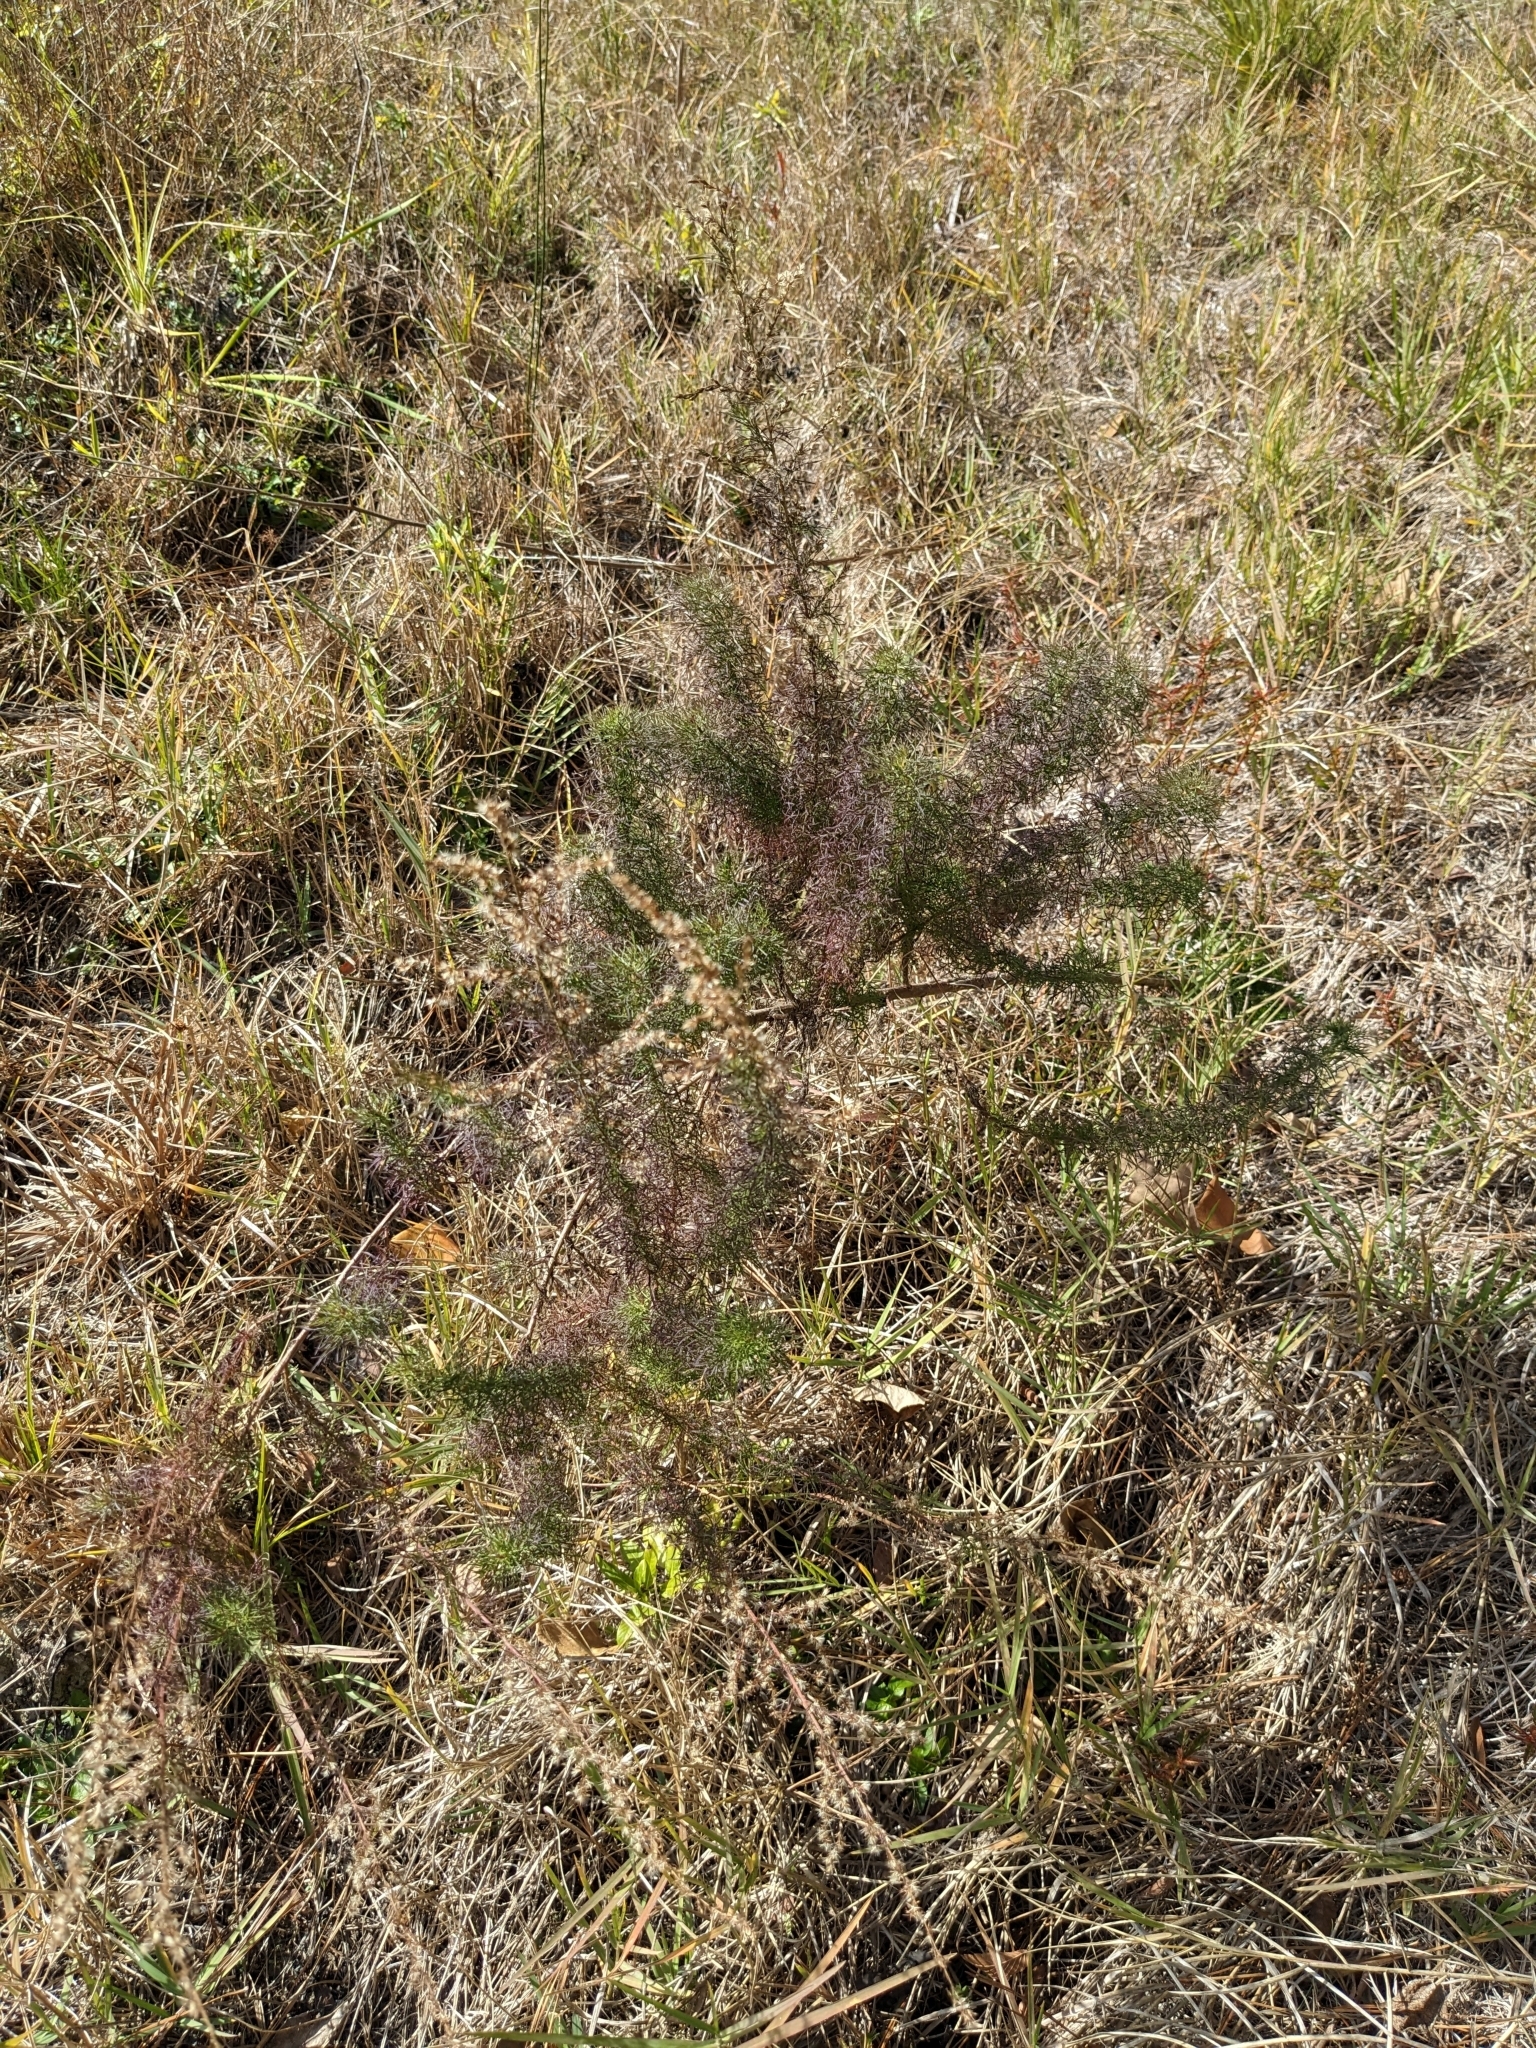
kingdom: Plantae
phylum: Tracheophyta
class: Magnoliopsida
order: Asterales
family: Asteraceae
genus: Eupatorium
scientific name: Eupatorium compositifolium
